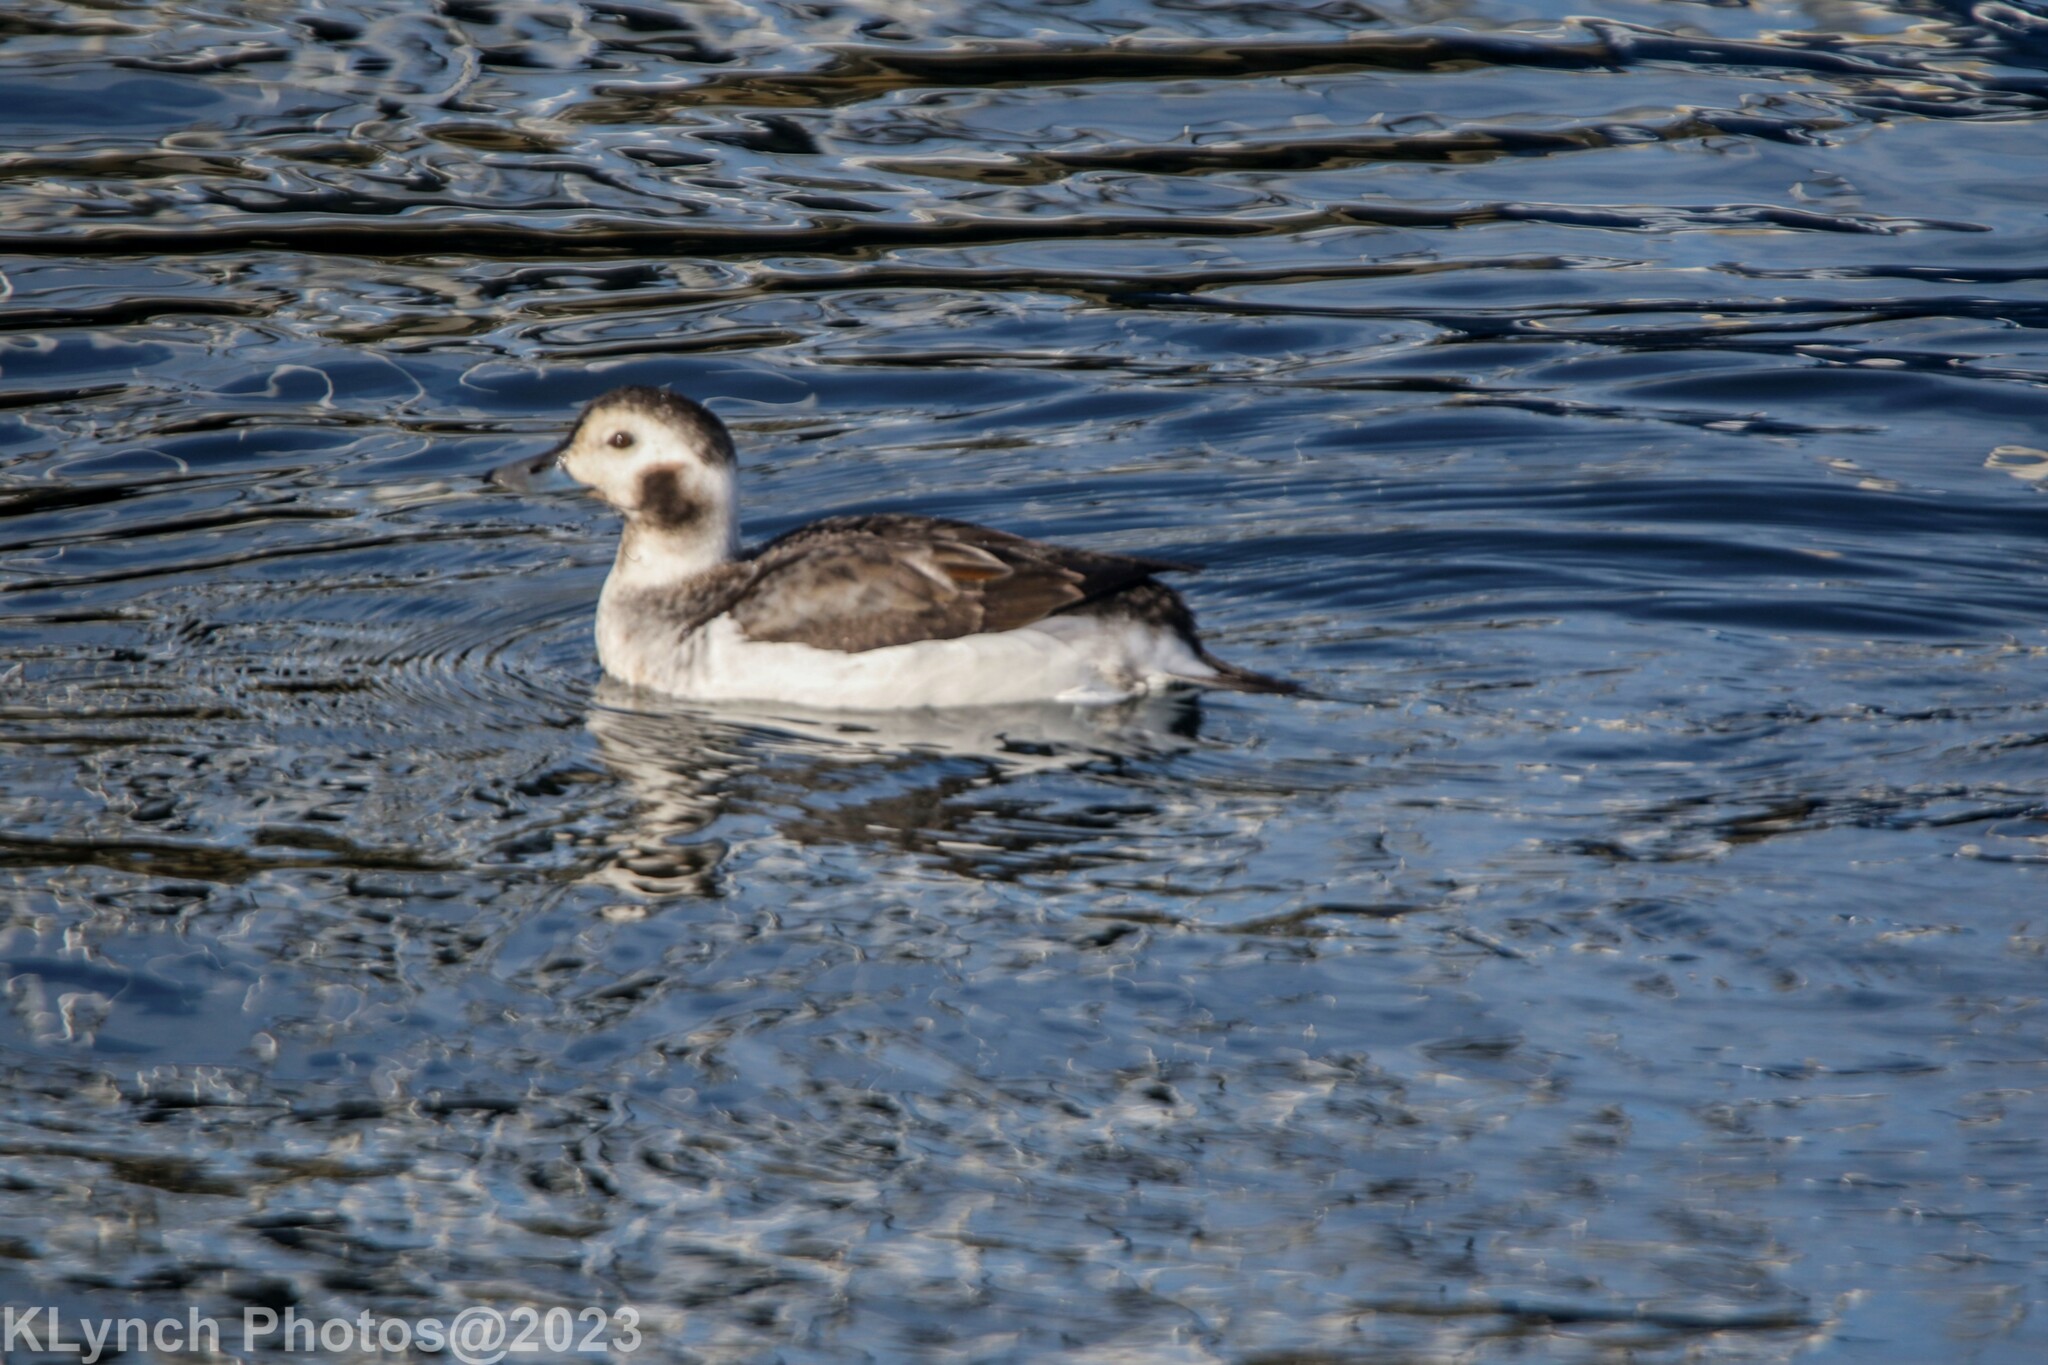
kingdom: Animalia
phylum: Chordata
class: Aves
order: Anseriformes
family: Anatidae
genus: Clangula
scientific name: Clangula hyemalis
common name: Long-tailed duck
